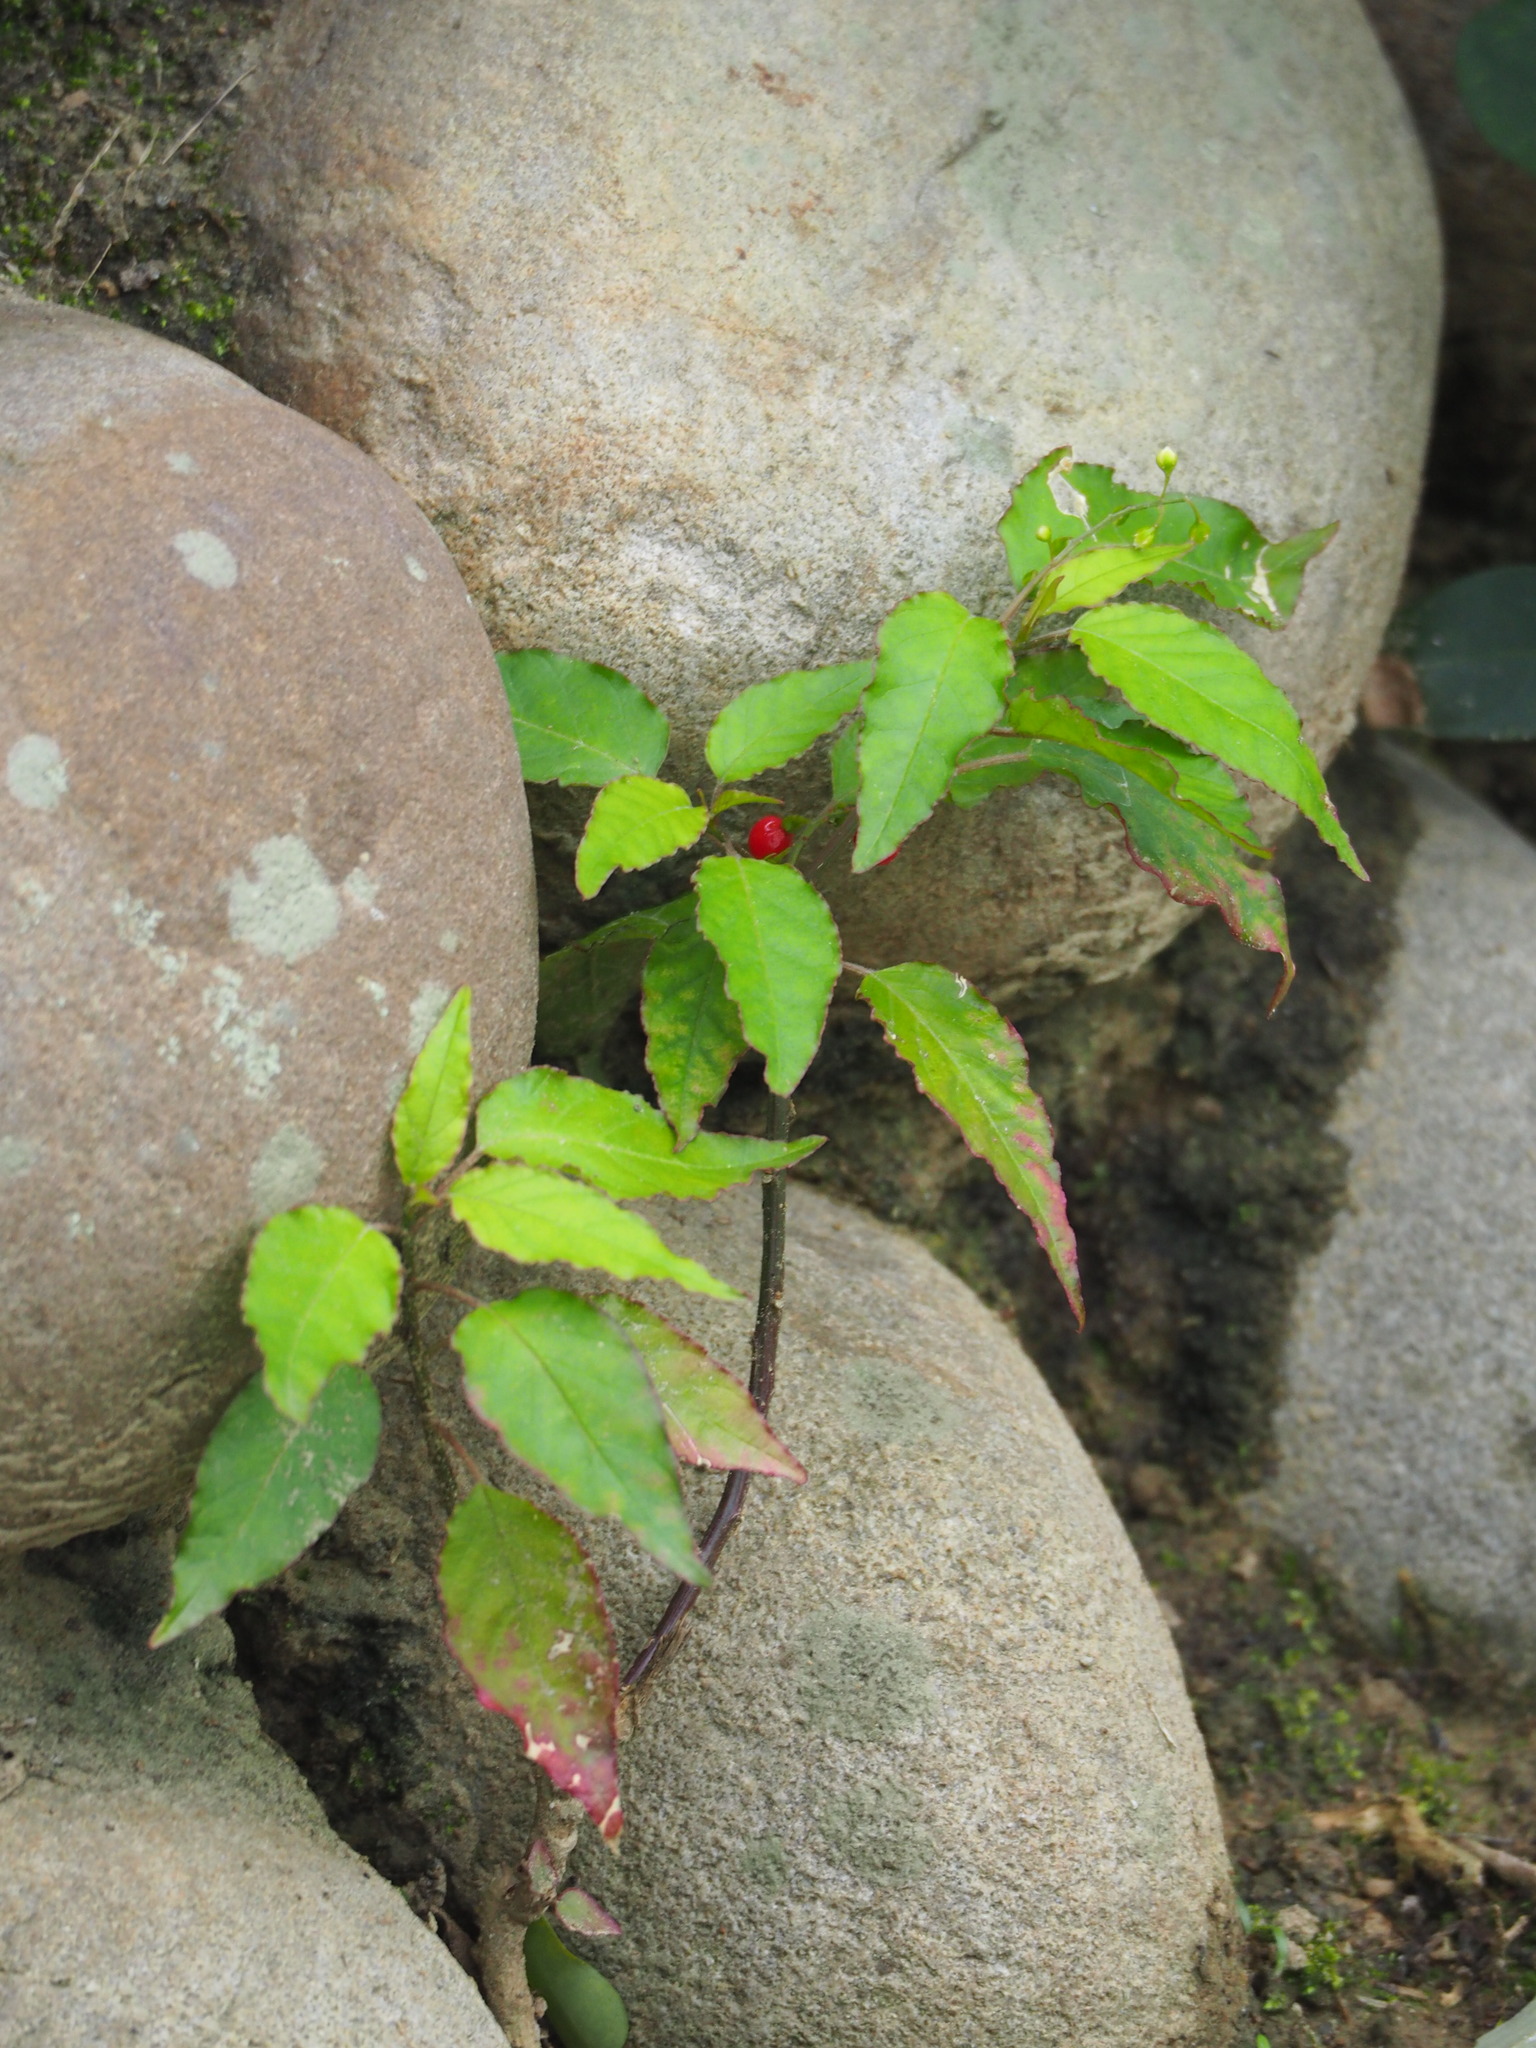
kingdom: Plantae
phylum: Tracheophyta
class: Magnoliopsida
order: Caryophyllales
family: Phytolaccaceae
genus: Rivina
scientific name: Rivina humilis
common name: Rougeplant
